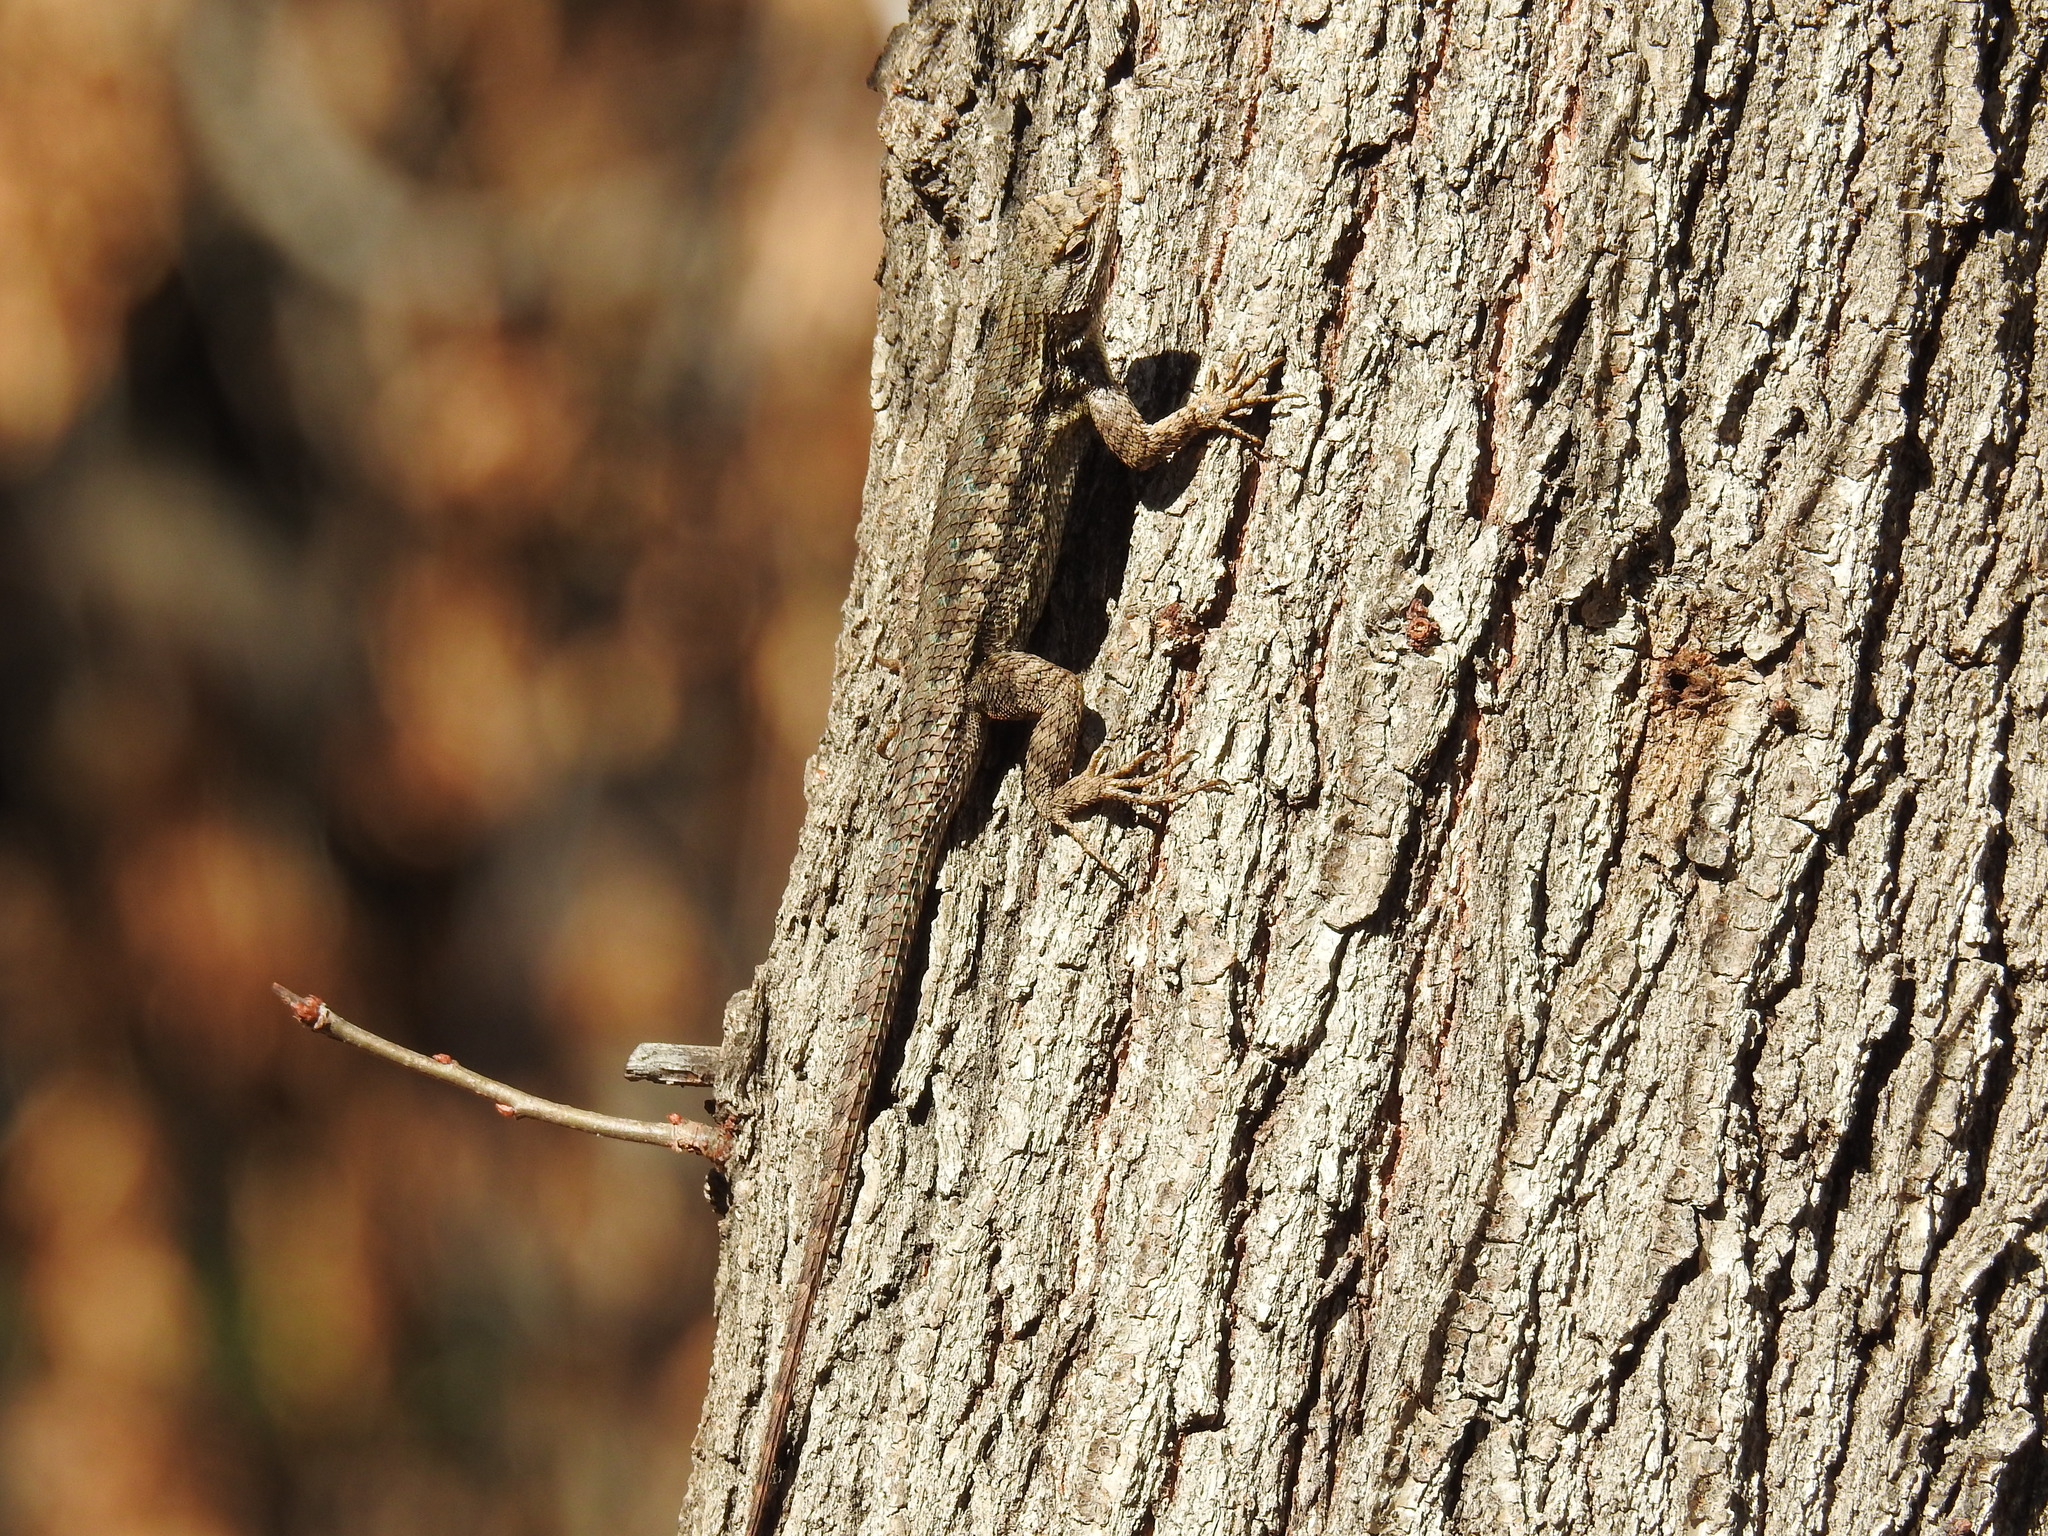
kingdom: Animalia
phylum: Chordata
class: Squamata
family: Phrynosomatidae
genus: Sceloporus
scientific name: Sceloporus occidentalis
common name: Western fence lizard
